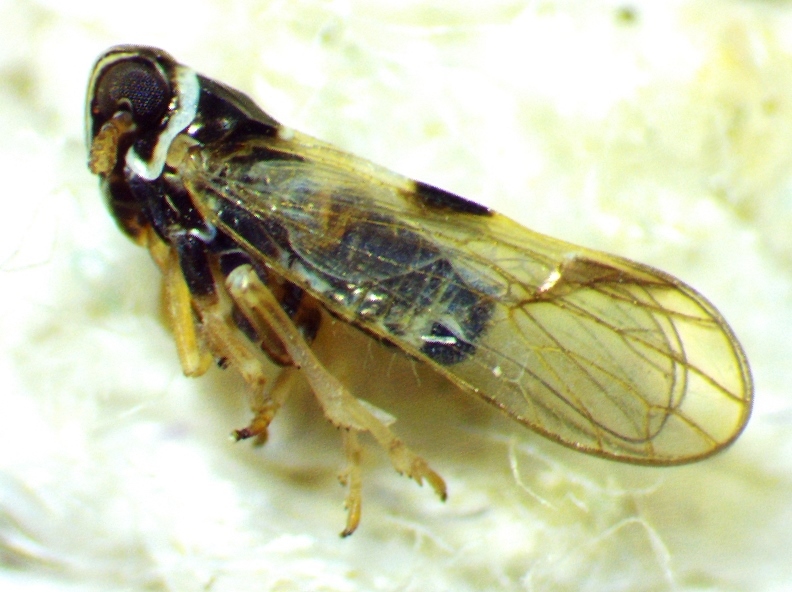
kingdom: Animalia
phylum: Arthropoda
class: Insecta
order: Hemiptera
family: Delphacidae
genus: Chionomus
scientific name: Chionomus
